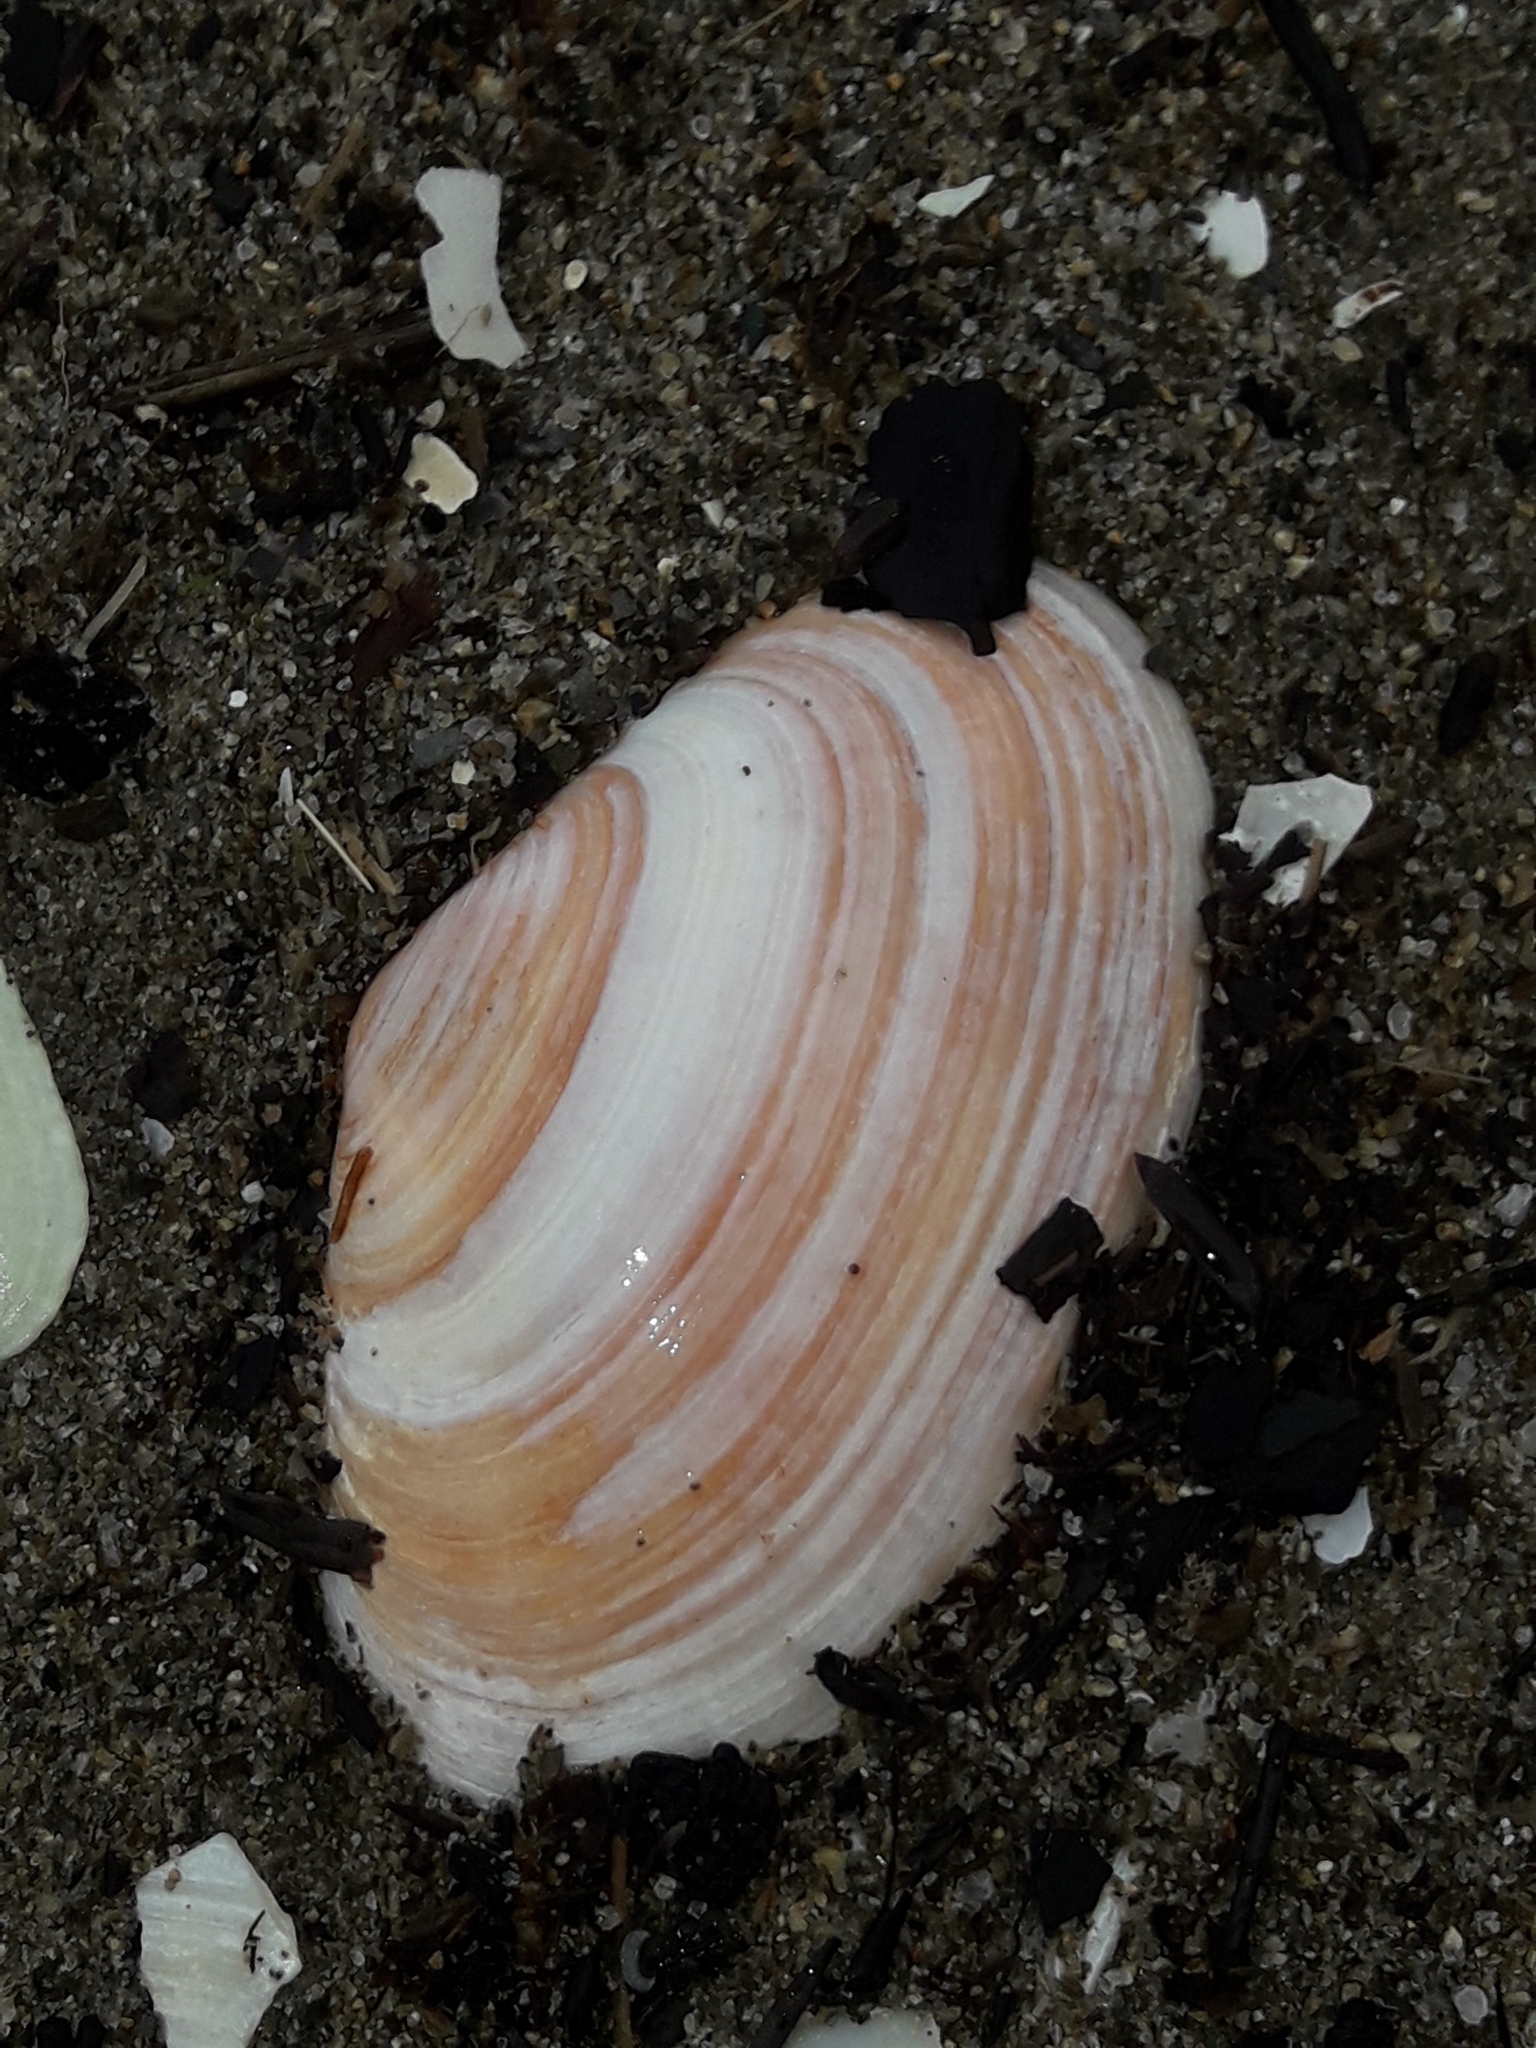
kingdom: Animalia
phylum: Mollusca
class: Bivalvia
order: Venerida
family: Mesodesmatidae
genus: Paphies
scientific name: Paphies australis
